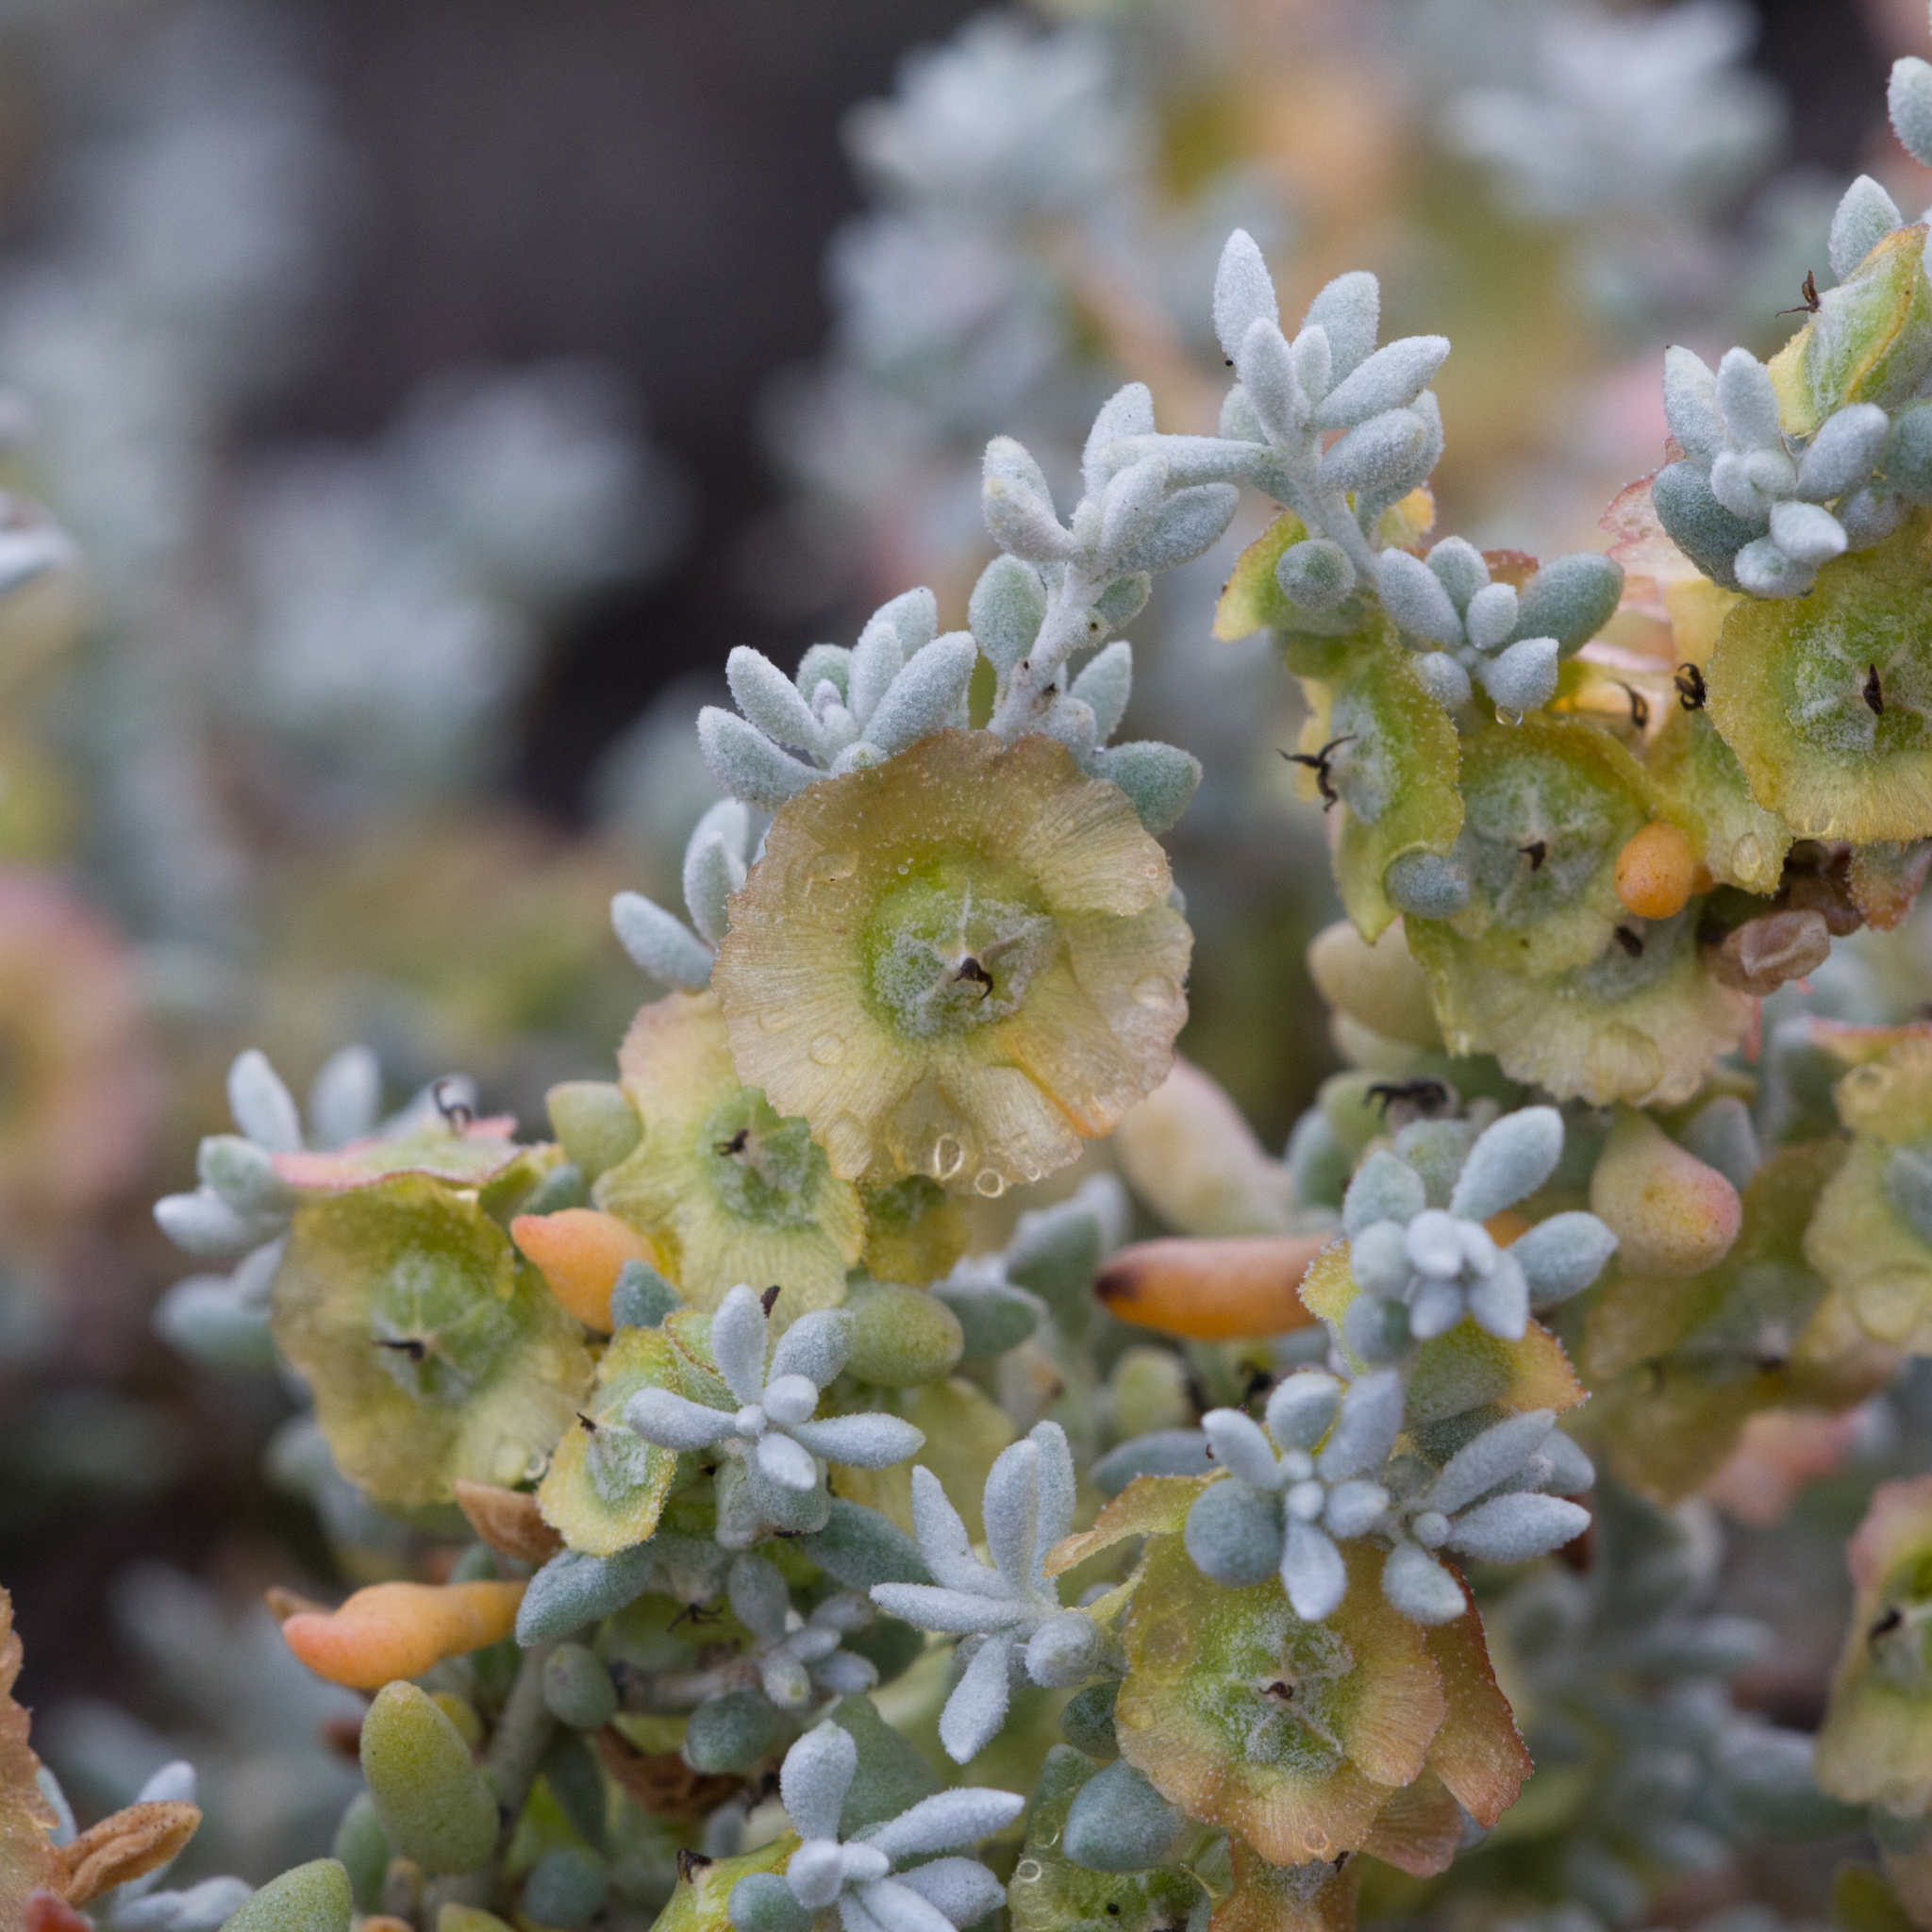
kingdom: Plantae
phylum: Tracheophyta
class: Magnoliopsida
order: Caryophyllales
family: Amaranthaceae
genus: Maireana
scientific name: Maireana astrotricha
